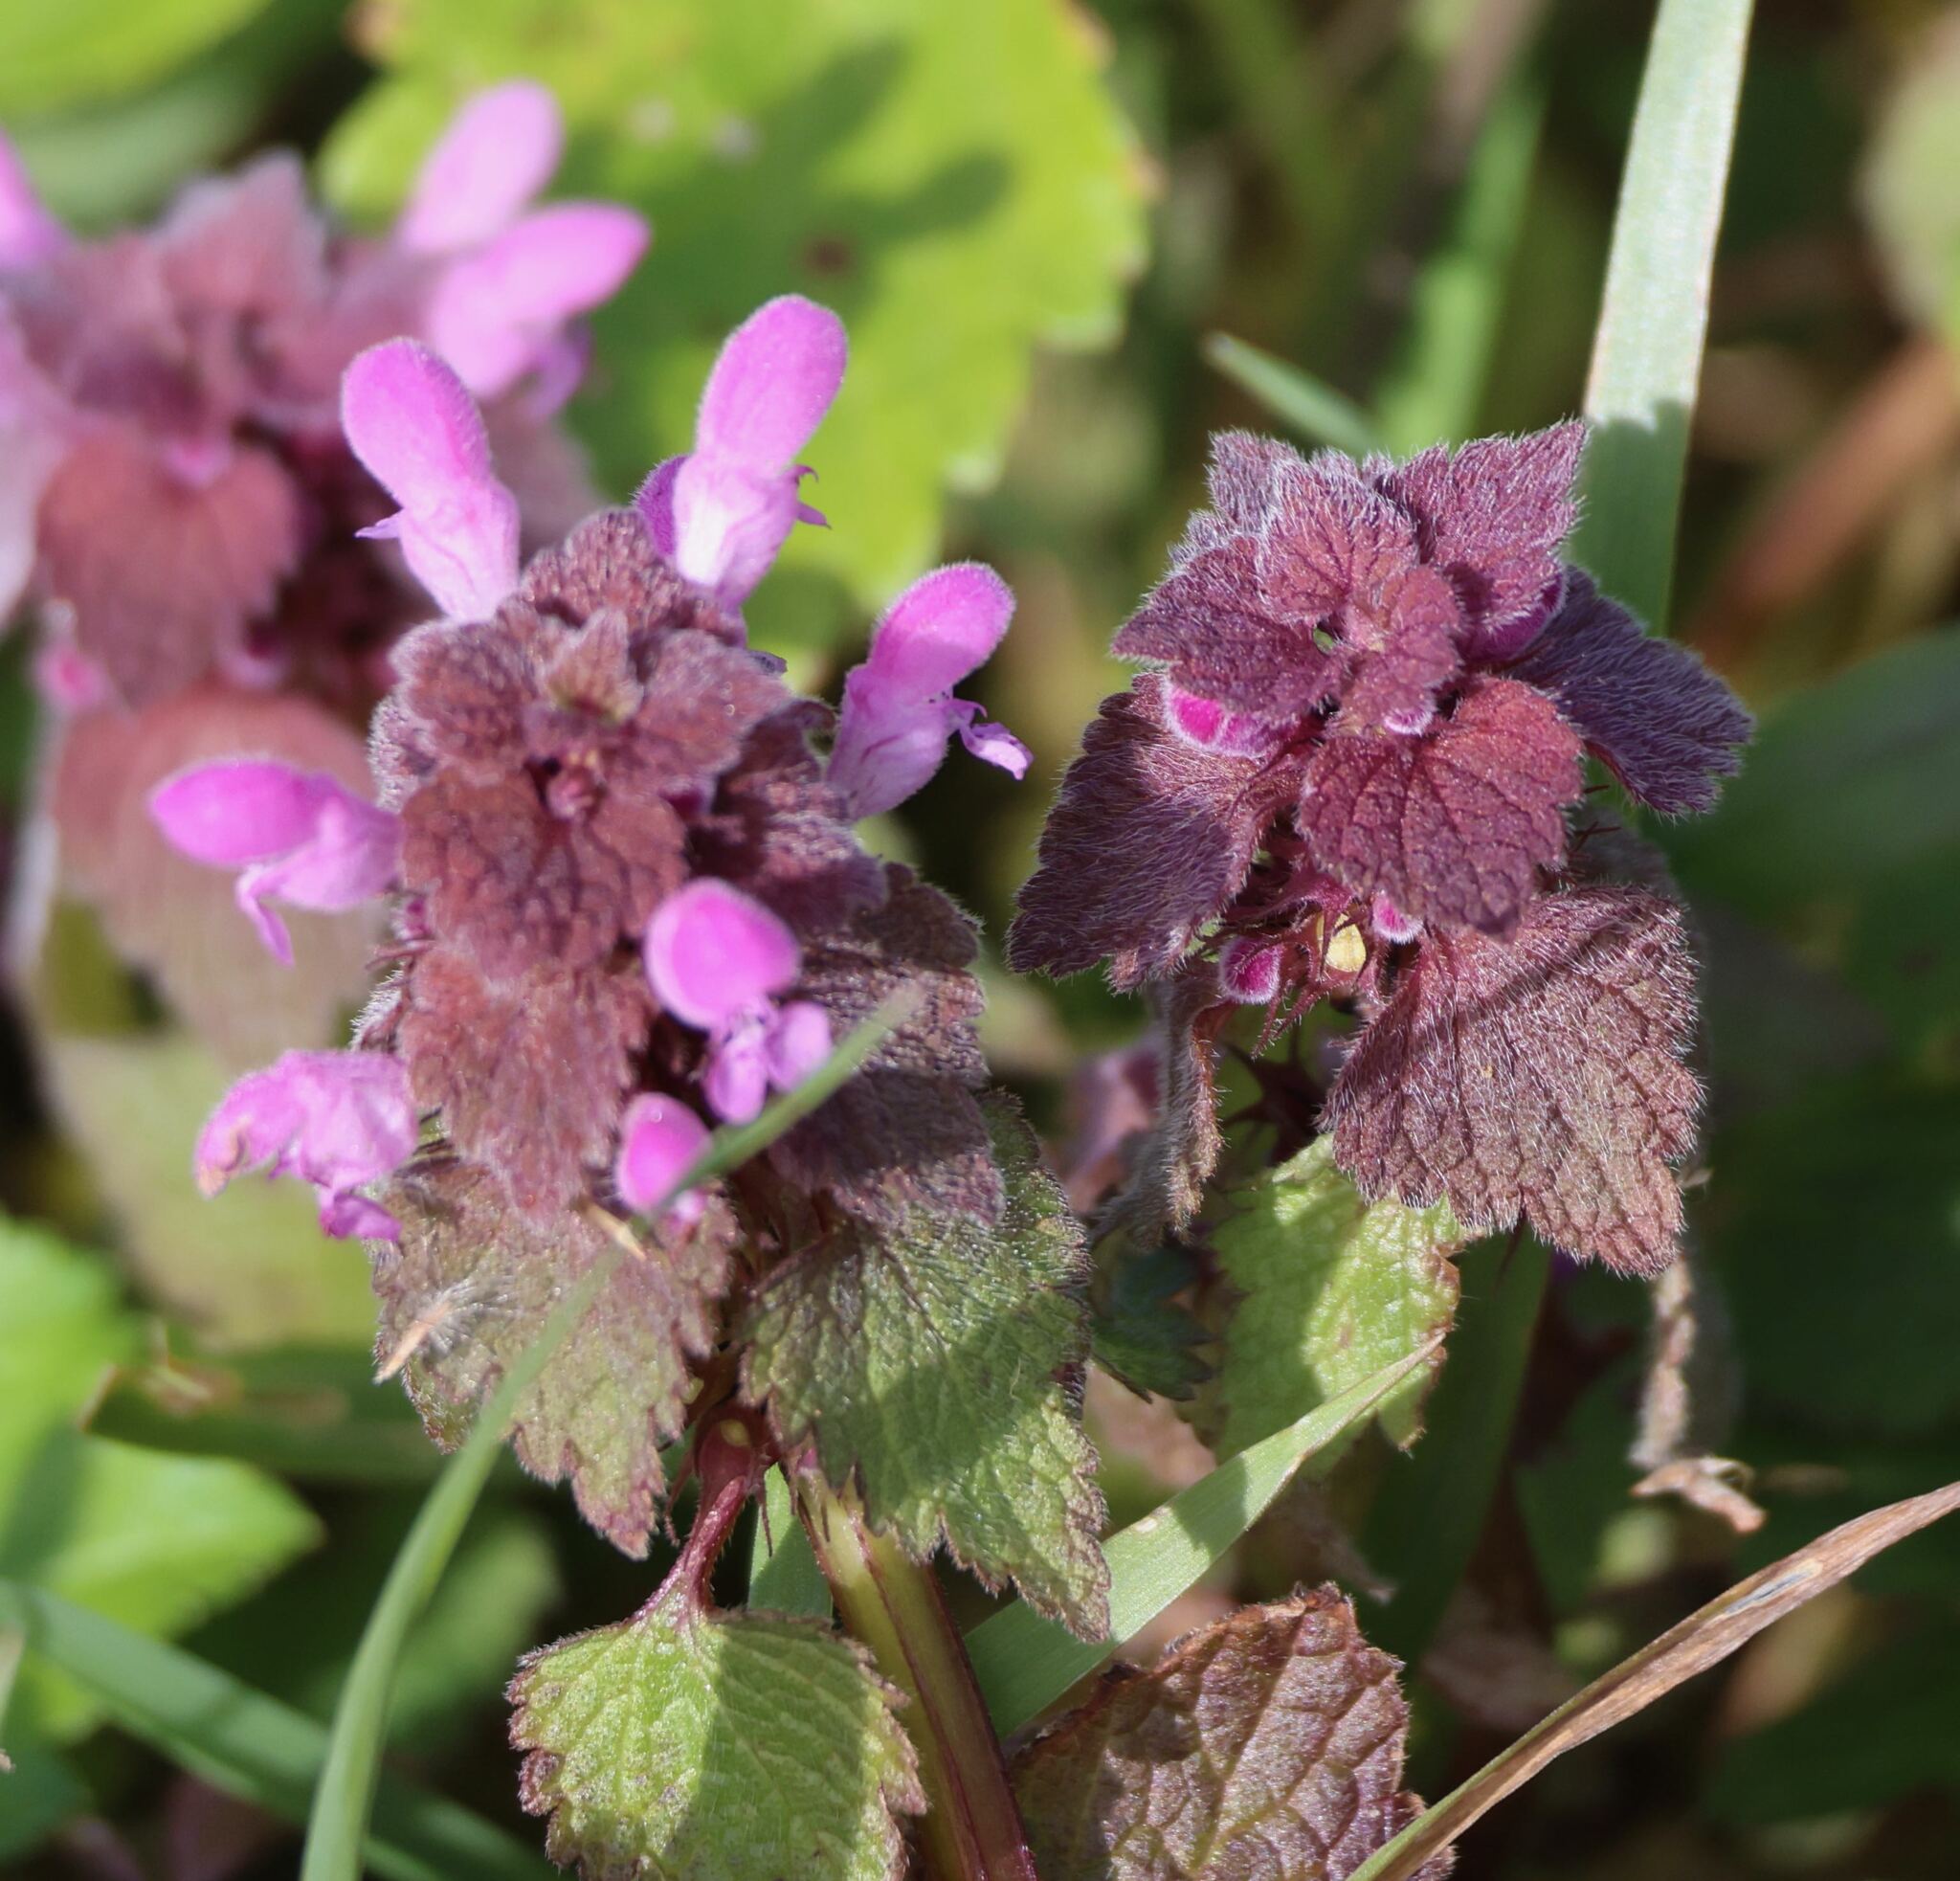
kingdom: Plantae
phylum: Tracheophyta
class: Magnoliopsida
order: Lamiales
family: Lamiaceae
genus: Lamium
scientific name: Lamium purpureum
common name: Red dead-nettle
